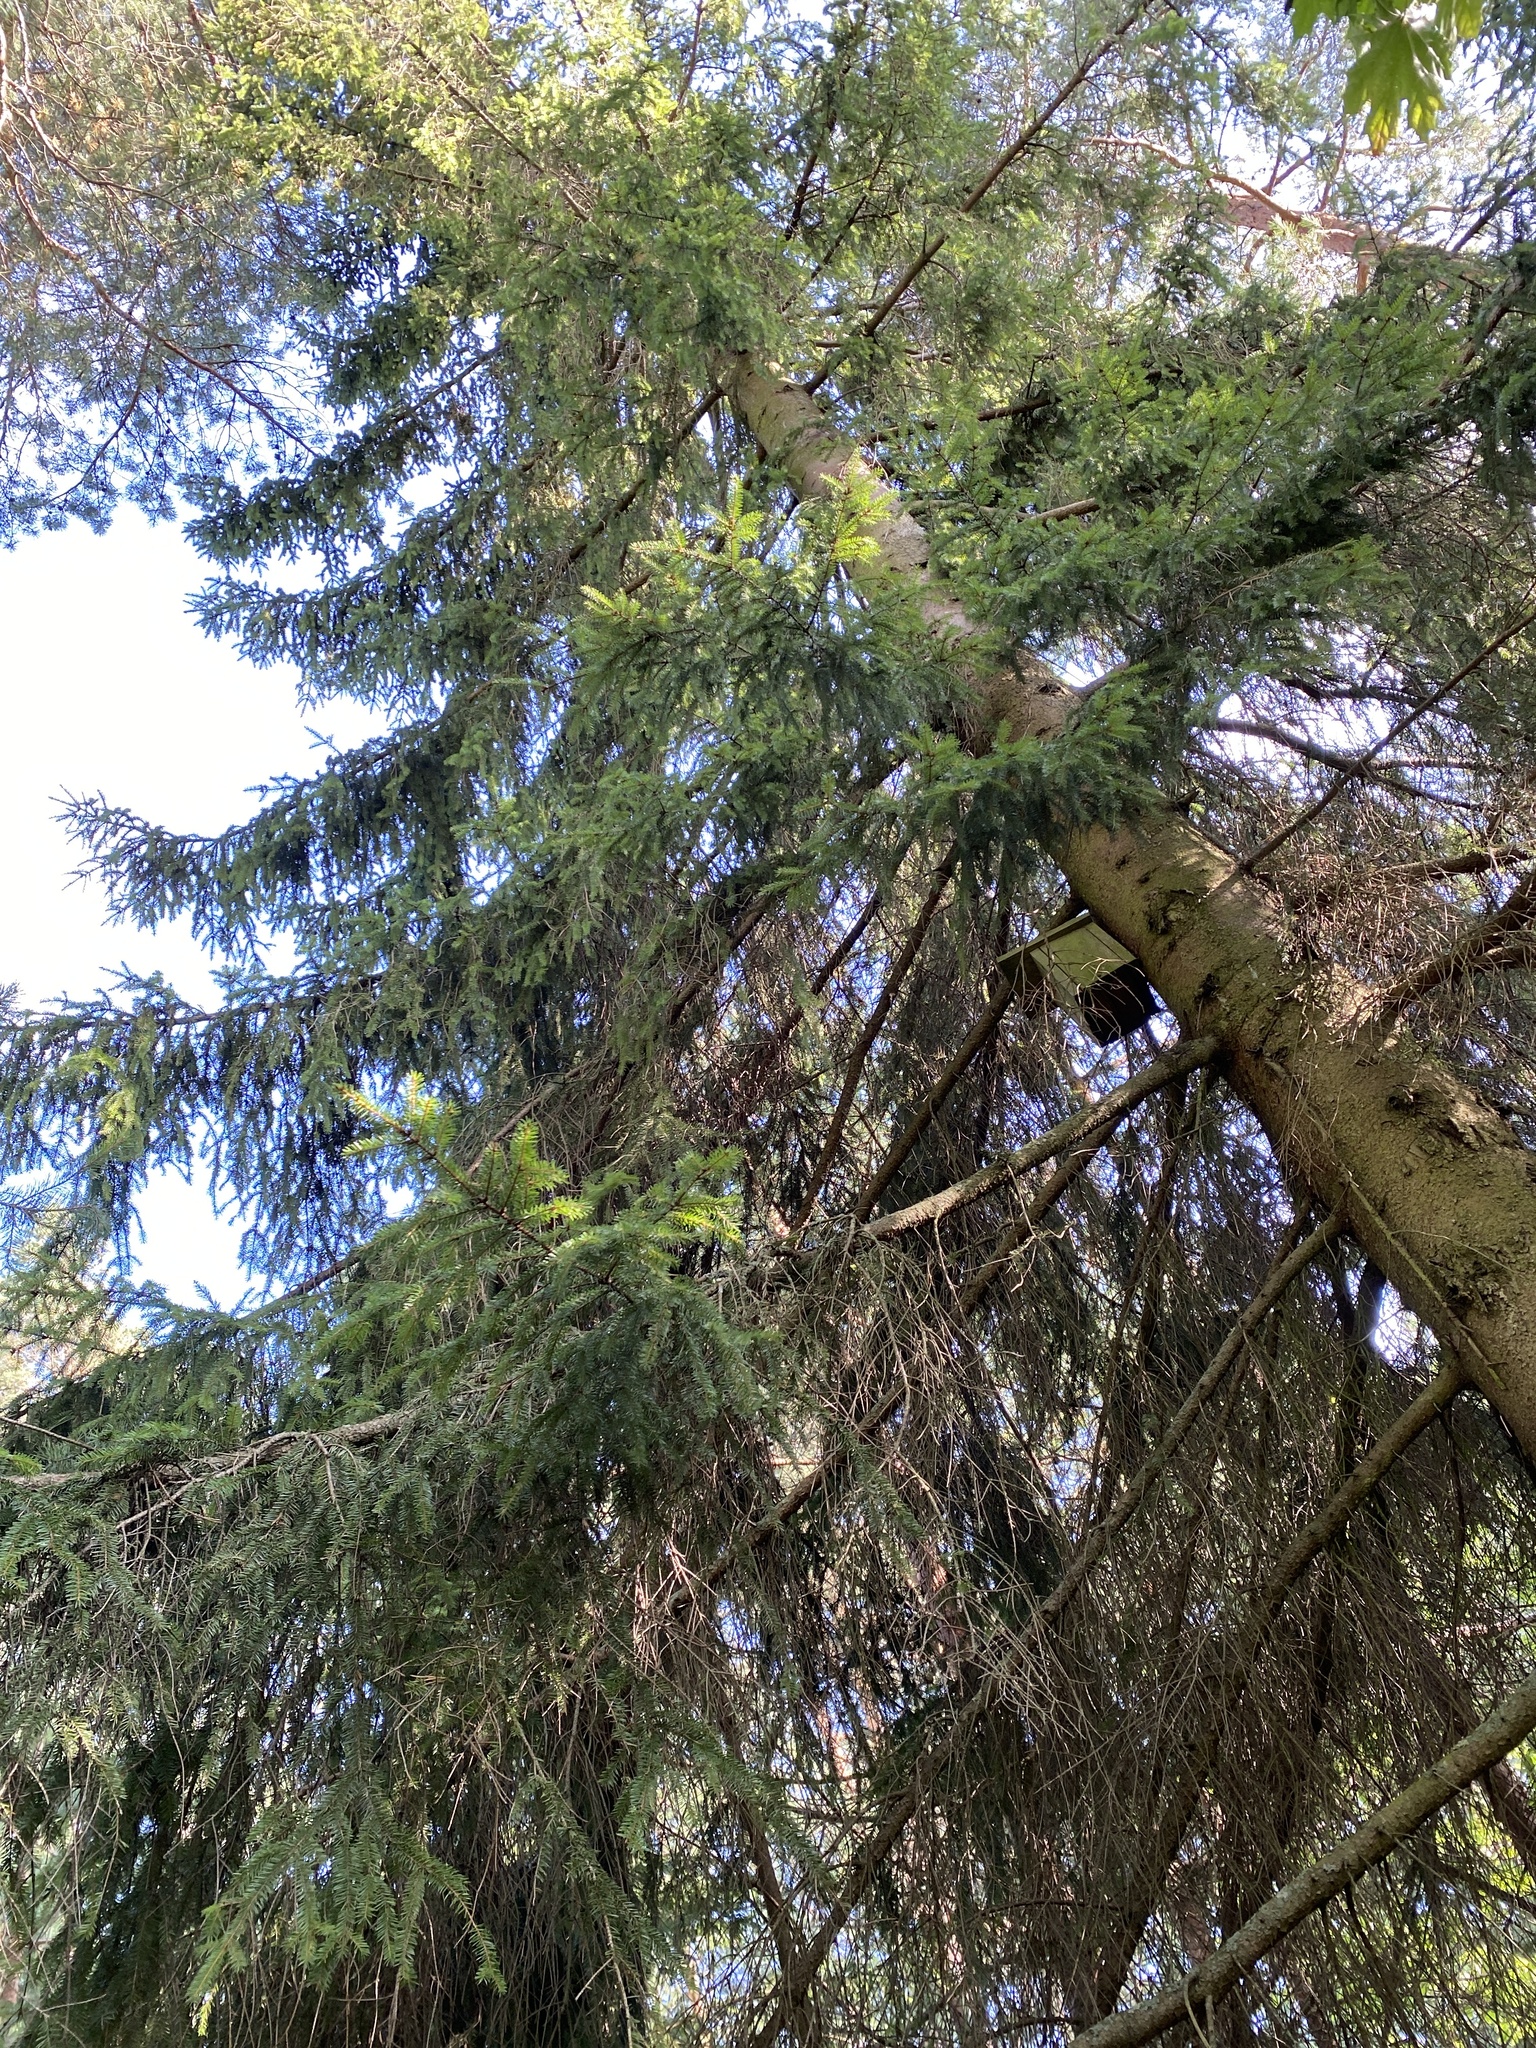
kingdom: Plantae
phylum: Tracheophyta
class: Pinopsida
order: Pinales
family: Pinaceae
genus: Picea
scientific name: Picea abies
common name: Norway spruce
